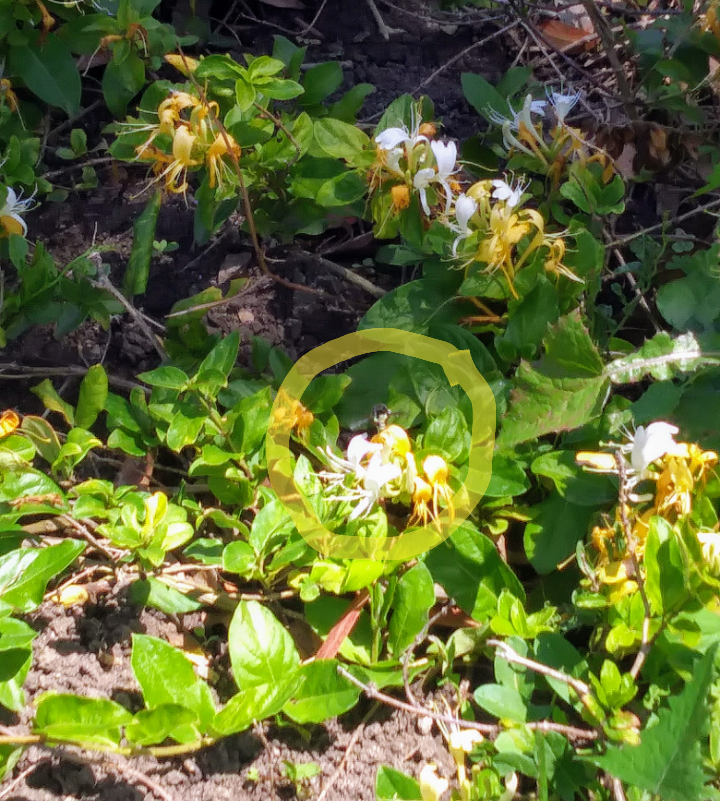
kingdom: Animalia
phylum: Arthropoda
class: Insecta
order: Hymenoptera
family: Apidae
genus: Bombus
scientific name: Bombus vosnesenskii
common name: Vosnesensky bumble bee
